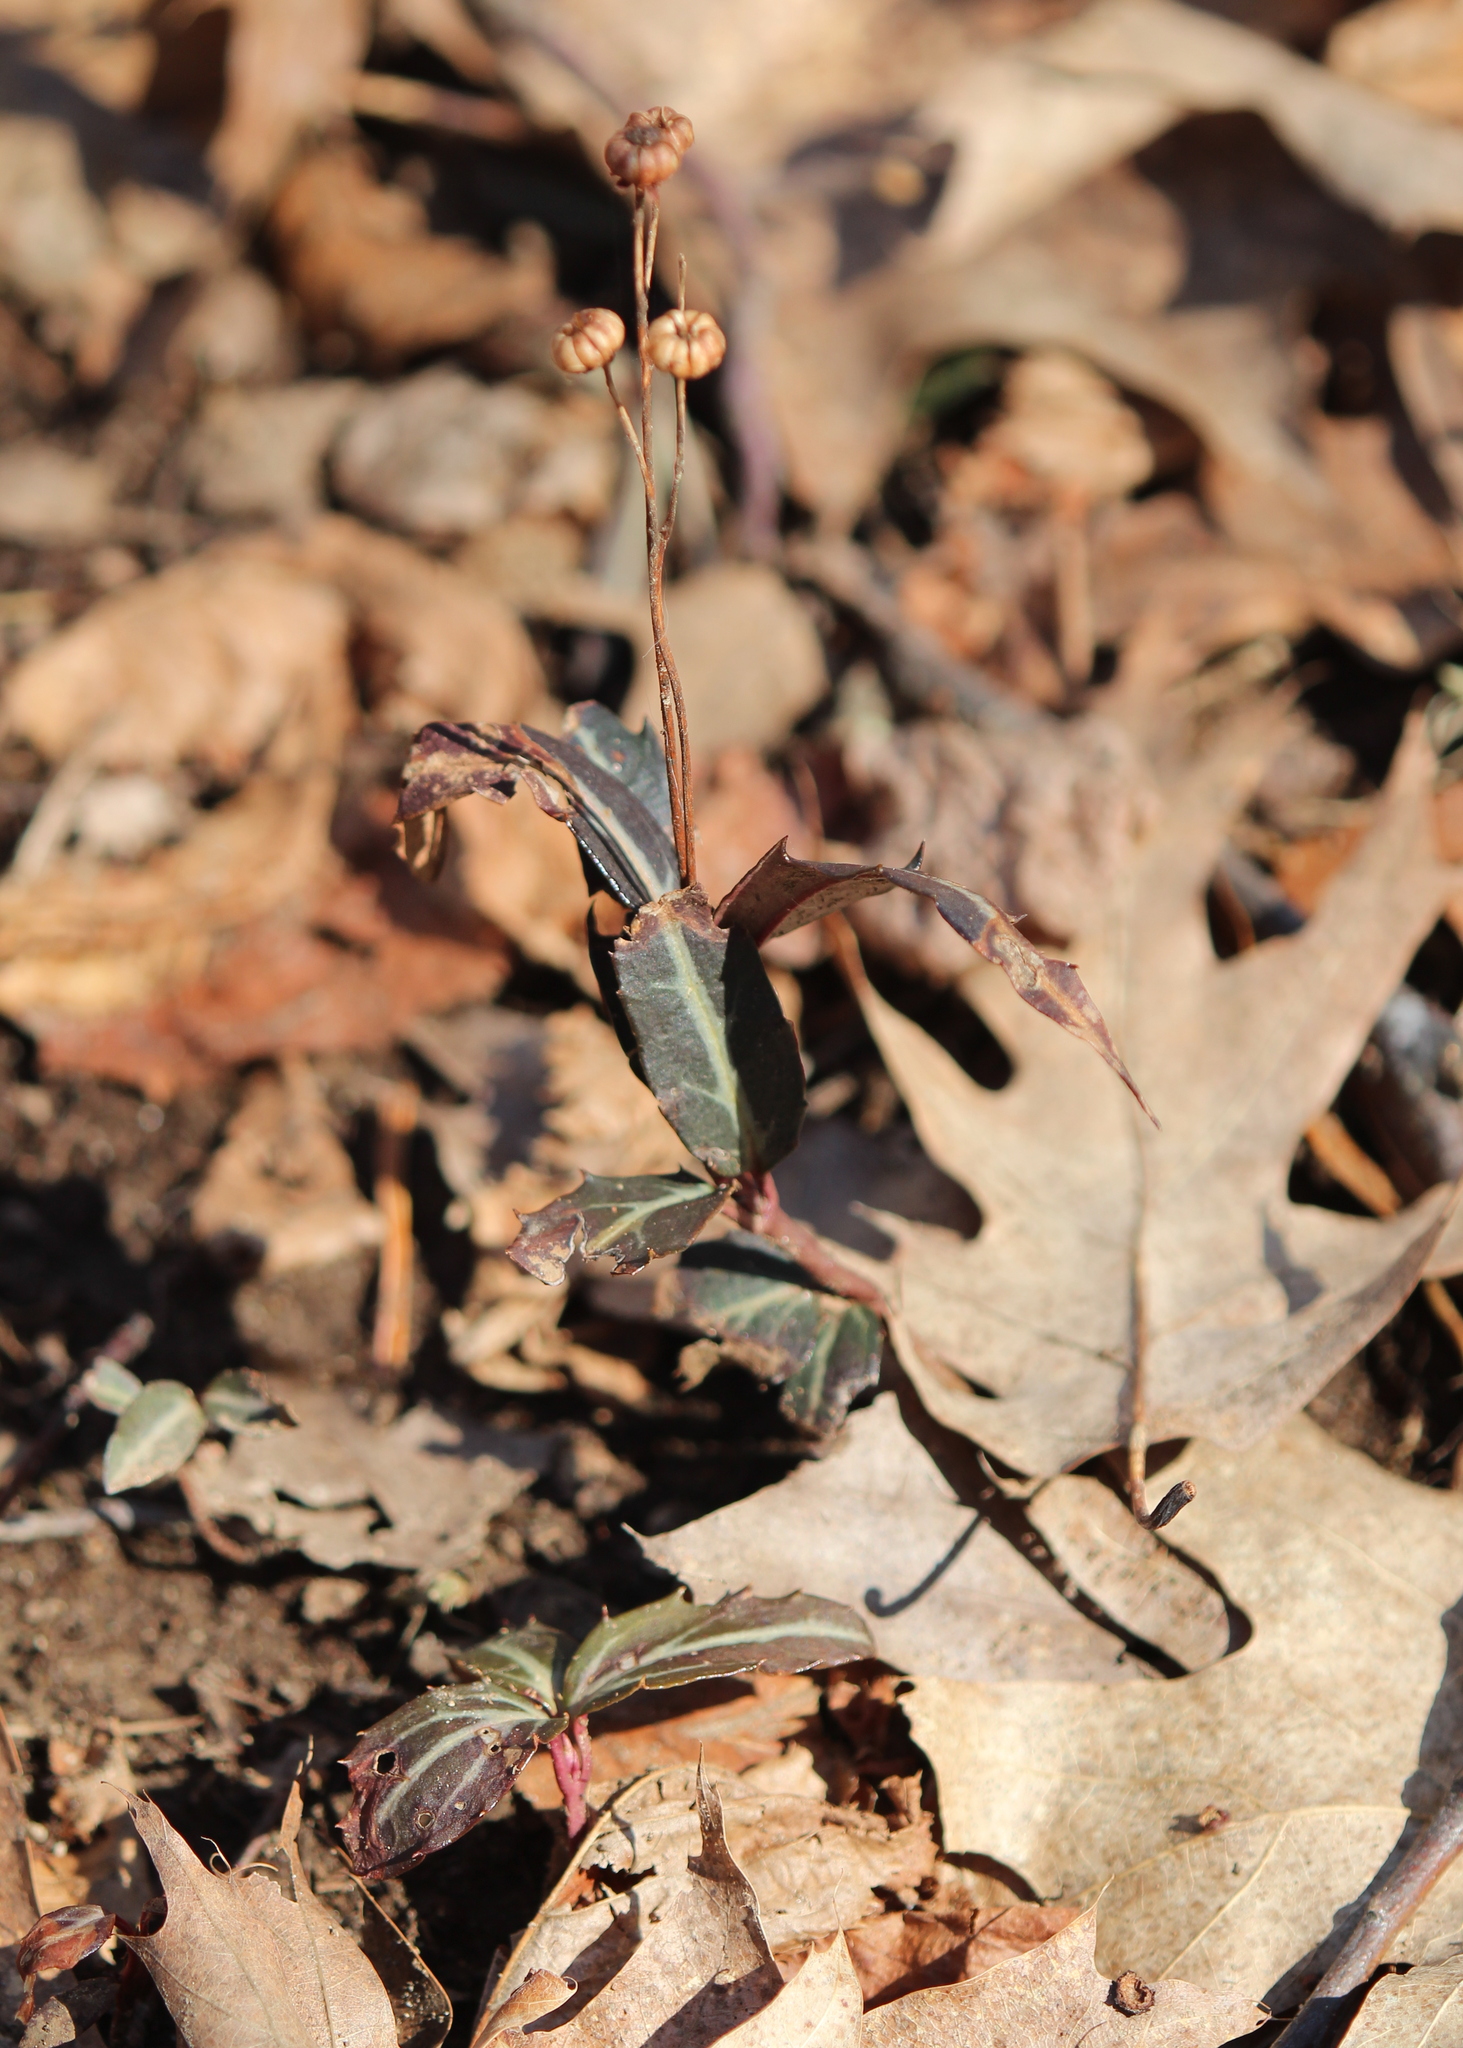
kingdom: Plantae
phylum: Tracheophyta
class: Magnoliopsida
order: Ericales
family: Ericaceae
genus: Chimaphila
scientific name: Chimaphila maculata
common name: Spotted pipsissewa
